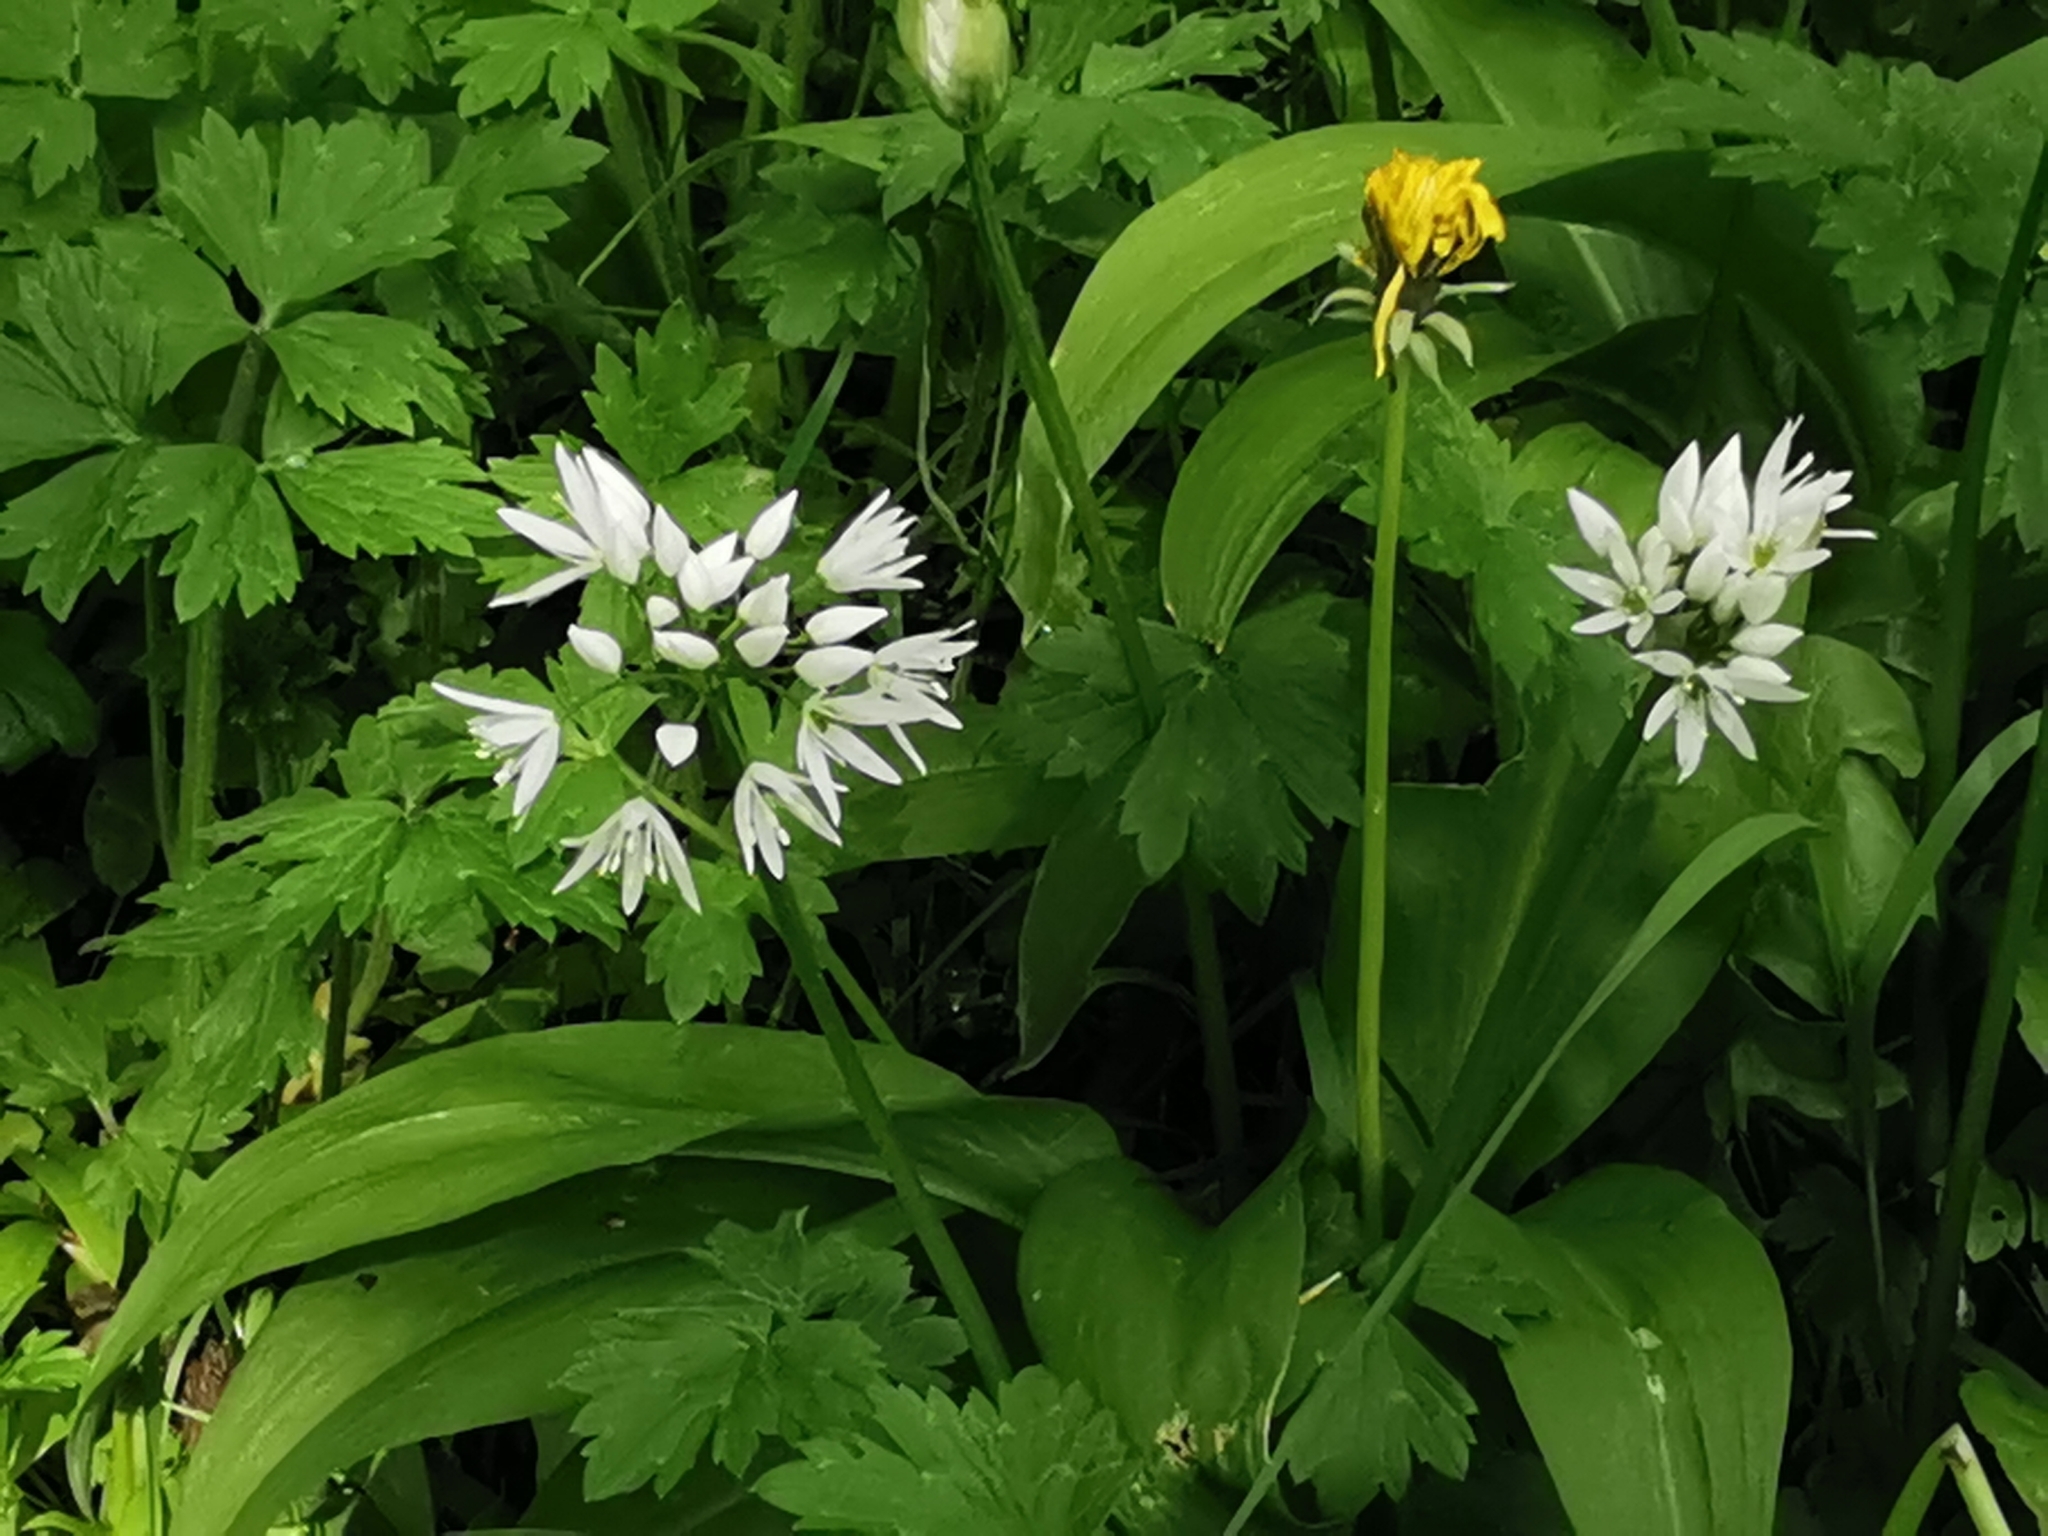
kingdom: Plantae
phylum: Tracheophyta
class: Liliopsida
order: Asparagales
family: Amaryllidaceae
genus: Allium
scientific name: Allium ursinum
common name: Ramsons
